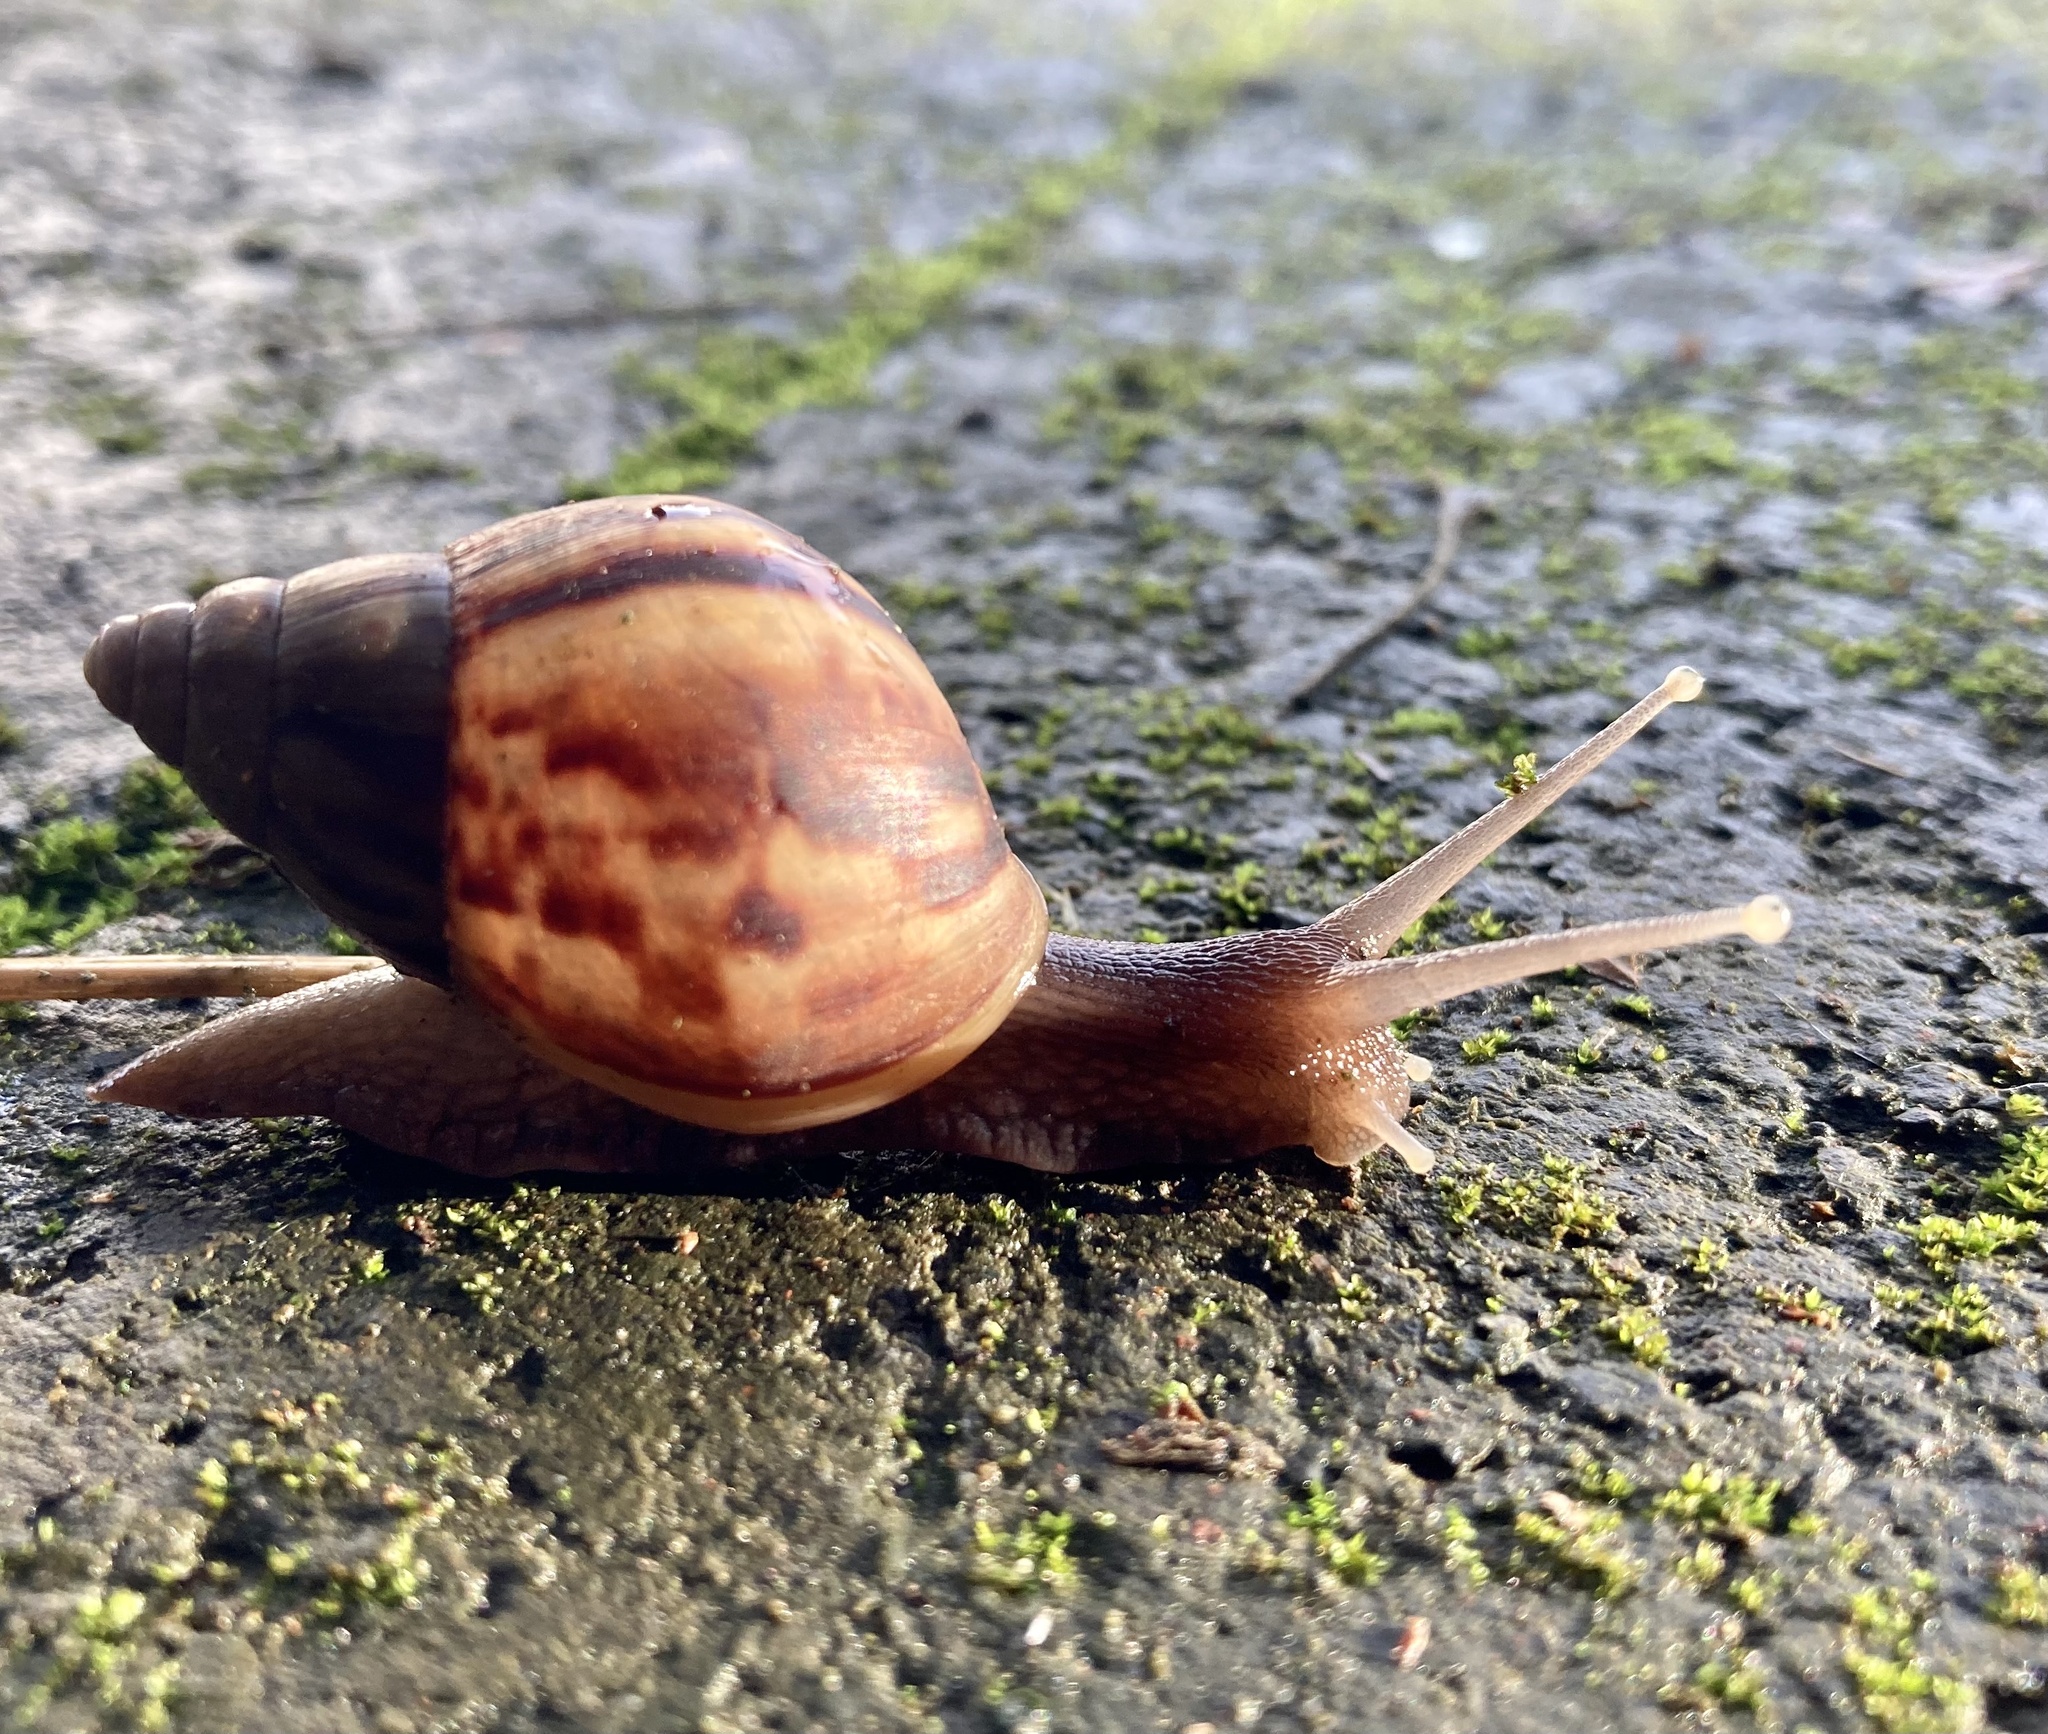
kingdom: Animalia
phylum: Mollusca
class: Gastropoda
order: Stylommatophora
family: Achatinidae
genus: Lissachatina
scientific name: Lissachatina fulica
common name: Giant african snail
